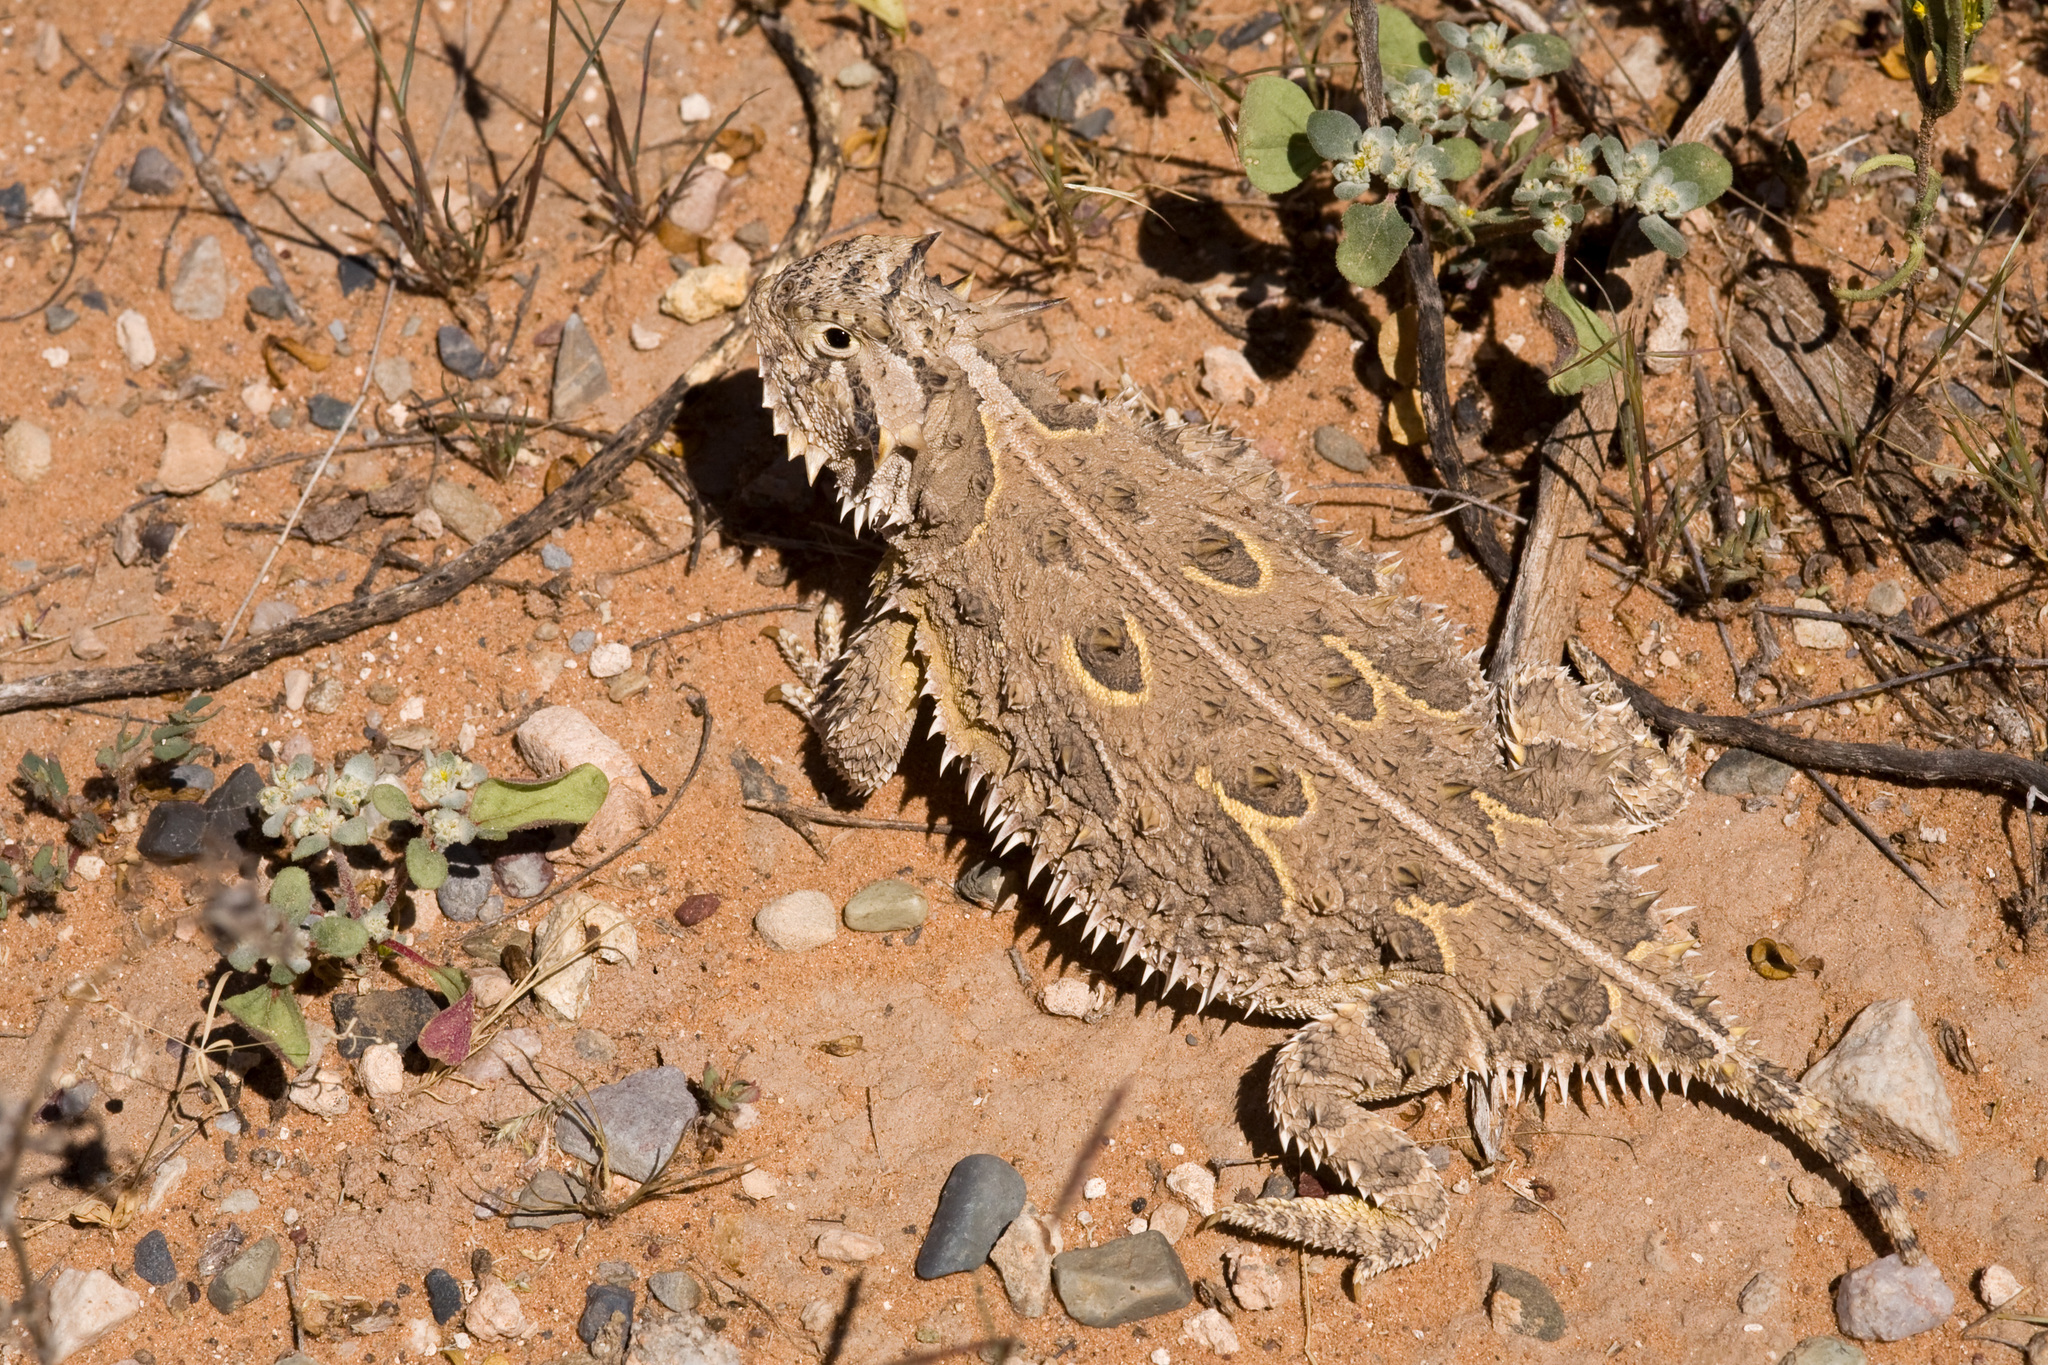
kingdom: Animalia
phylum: Chordata
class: Squamata
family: Phrynosomatidae
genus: Phrynosoma
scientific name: Phrynosoma cornutum
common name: Texas horned lizard
